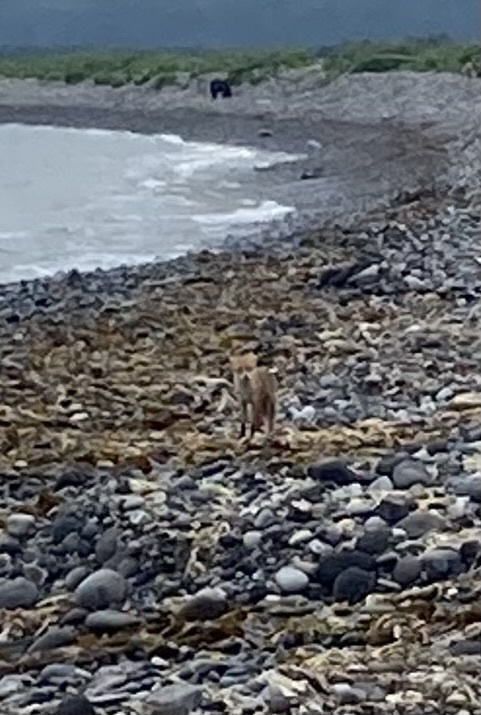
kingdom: Animalia
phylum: Chordata
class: Mammalia
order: Carnivora
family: Ursidae
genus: Ursus
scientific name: Ursus arctos
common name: Brown bear
